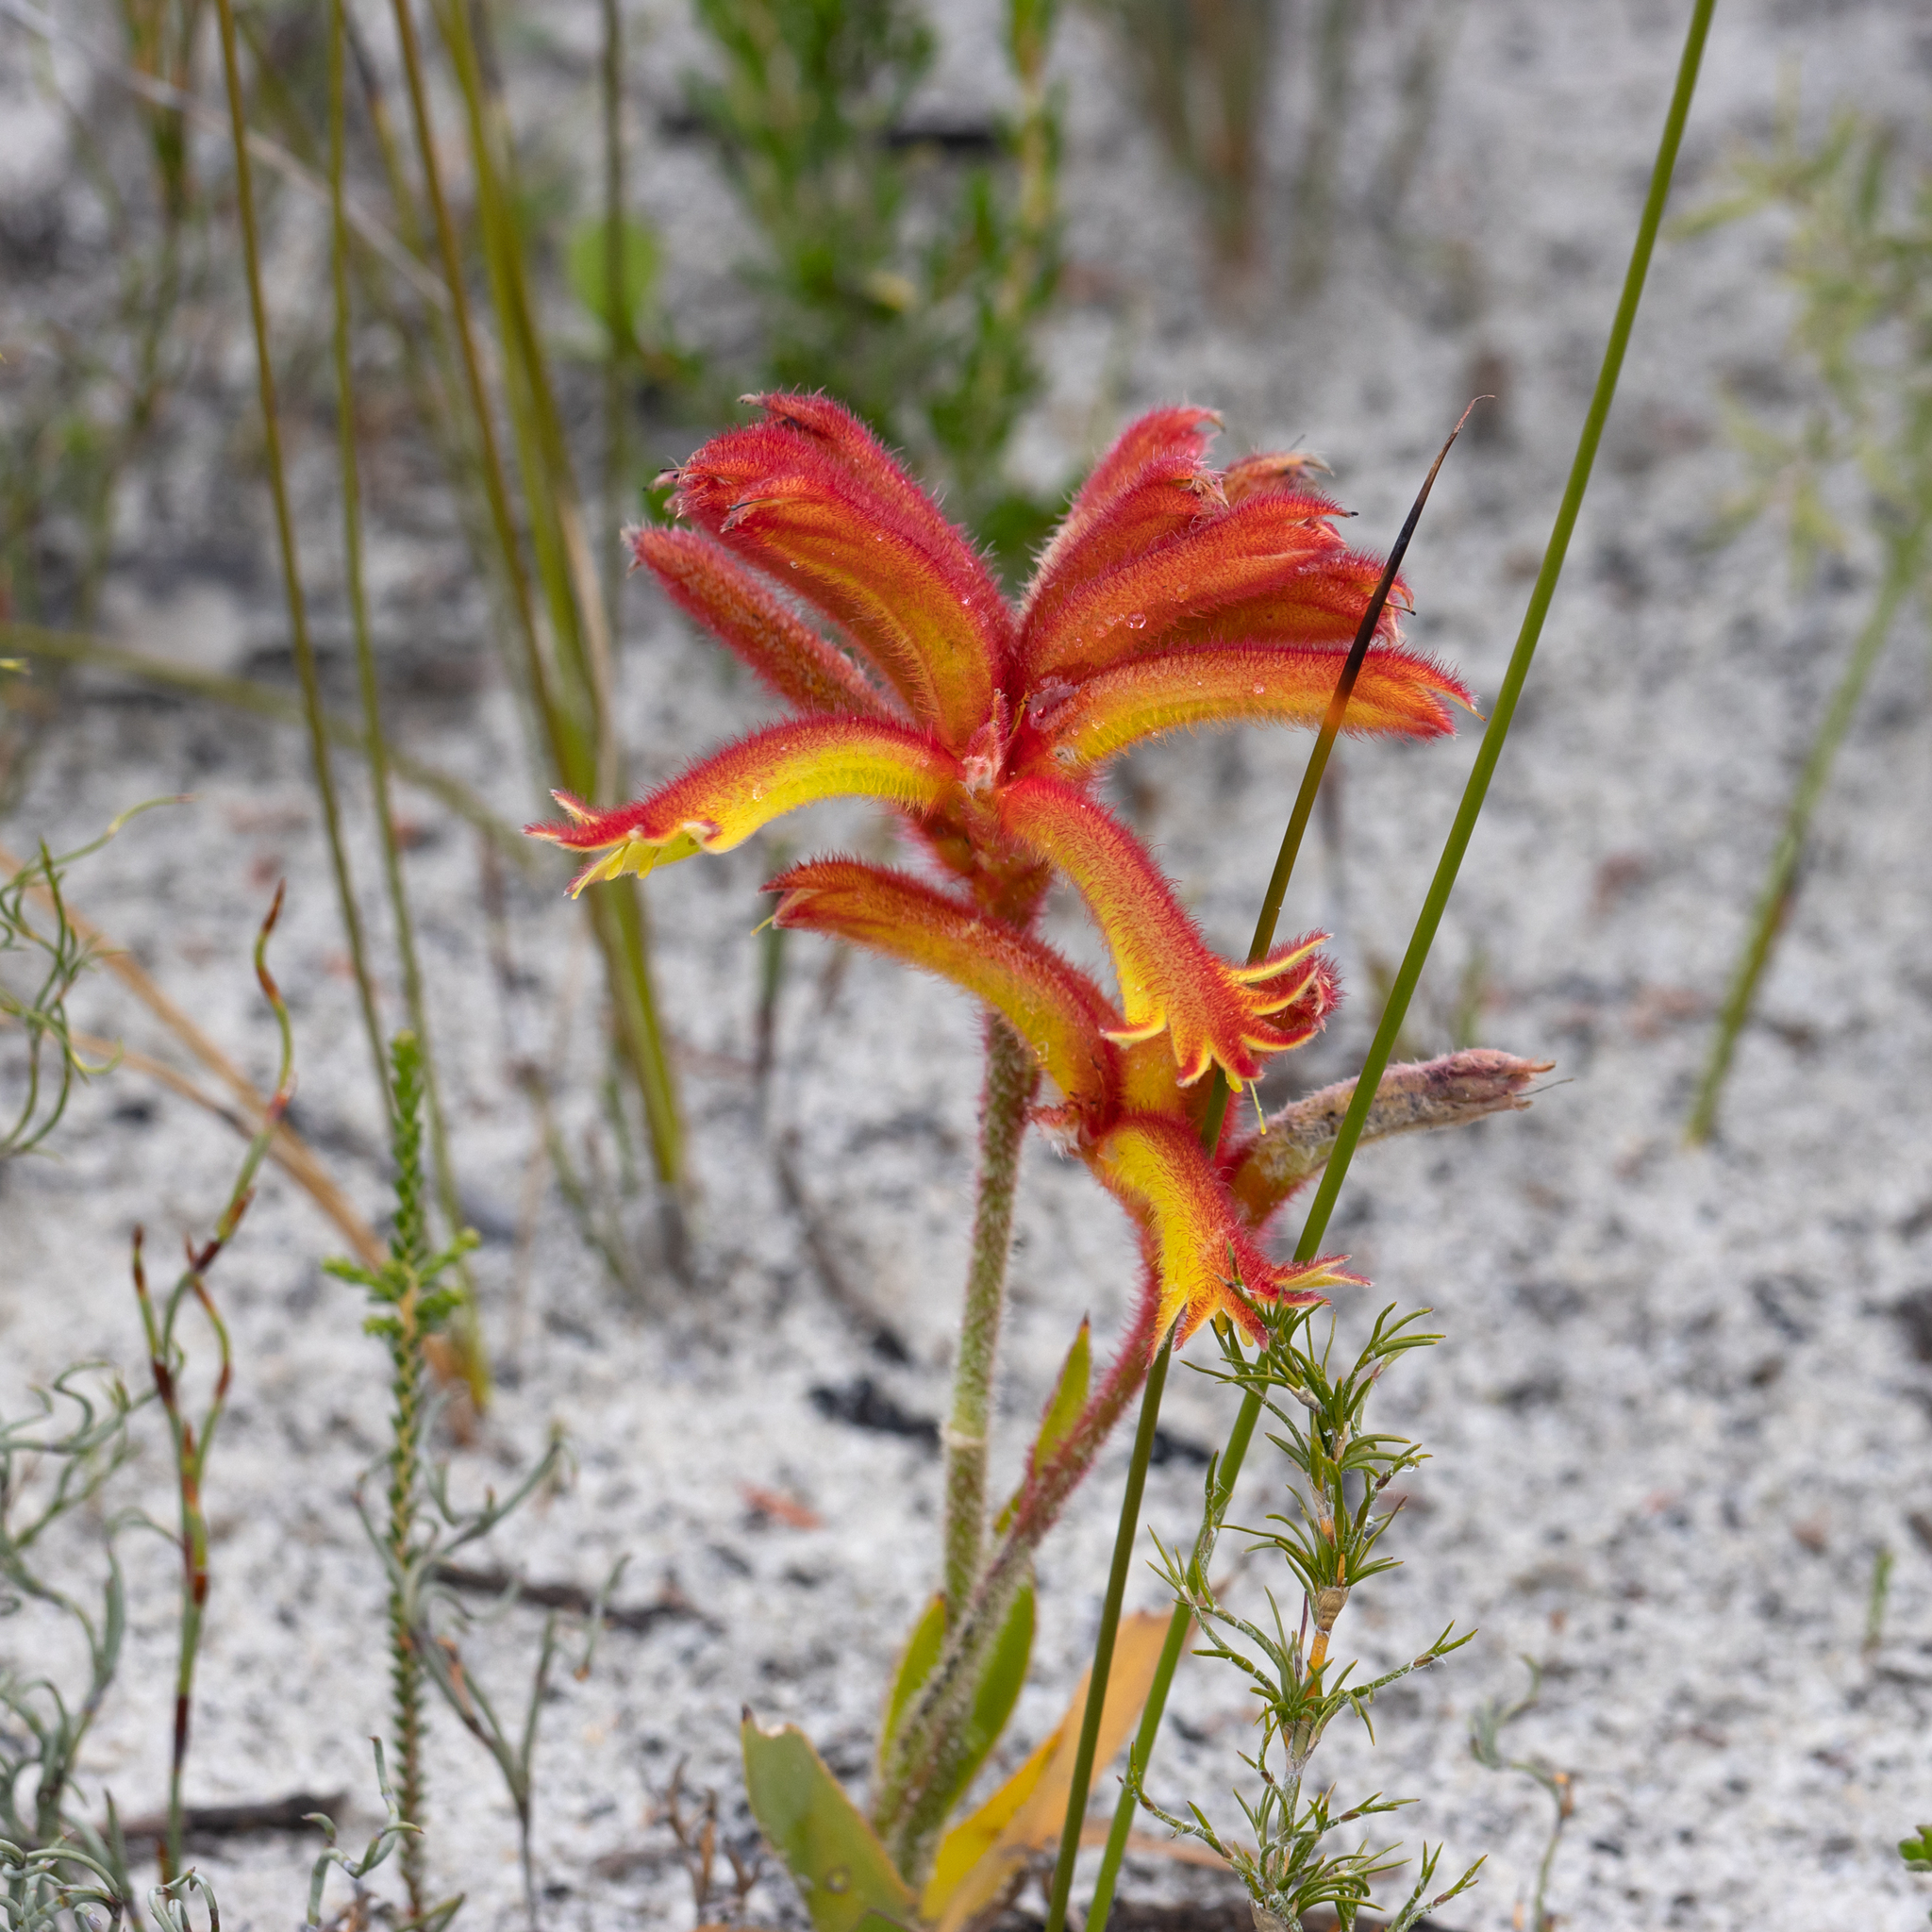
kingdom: Plantae
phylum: Tracheophyta
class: Liliopsida
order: Commelinales
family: Haemodoraceae
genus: Anigozanthos
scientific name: Anigozanthos humilis
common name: Cat's-paw
